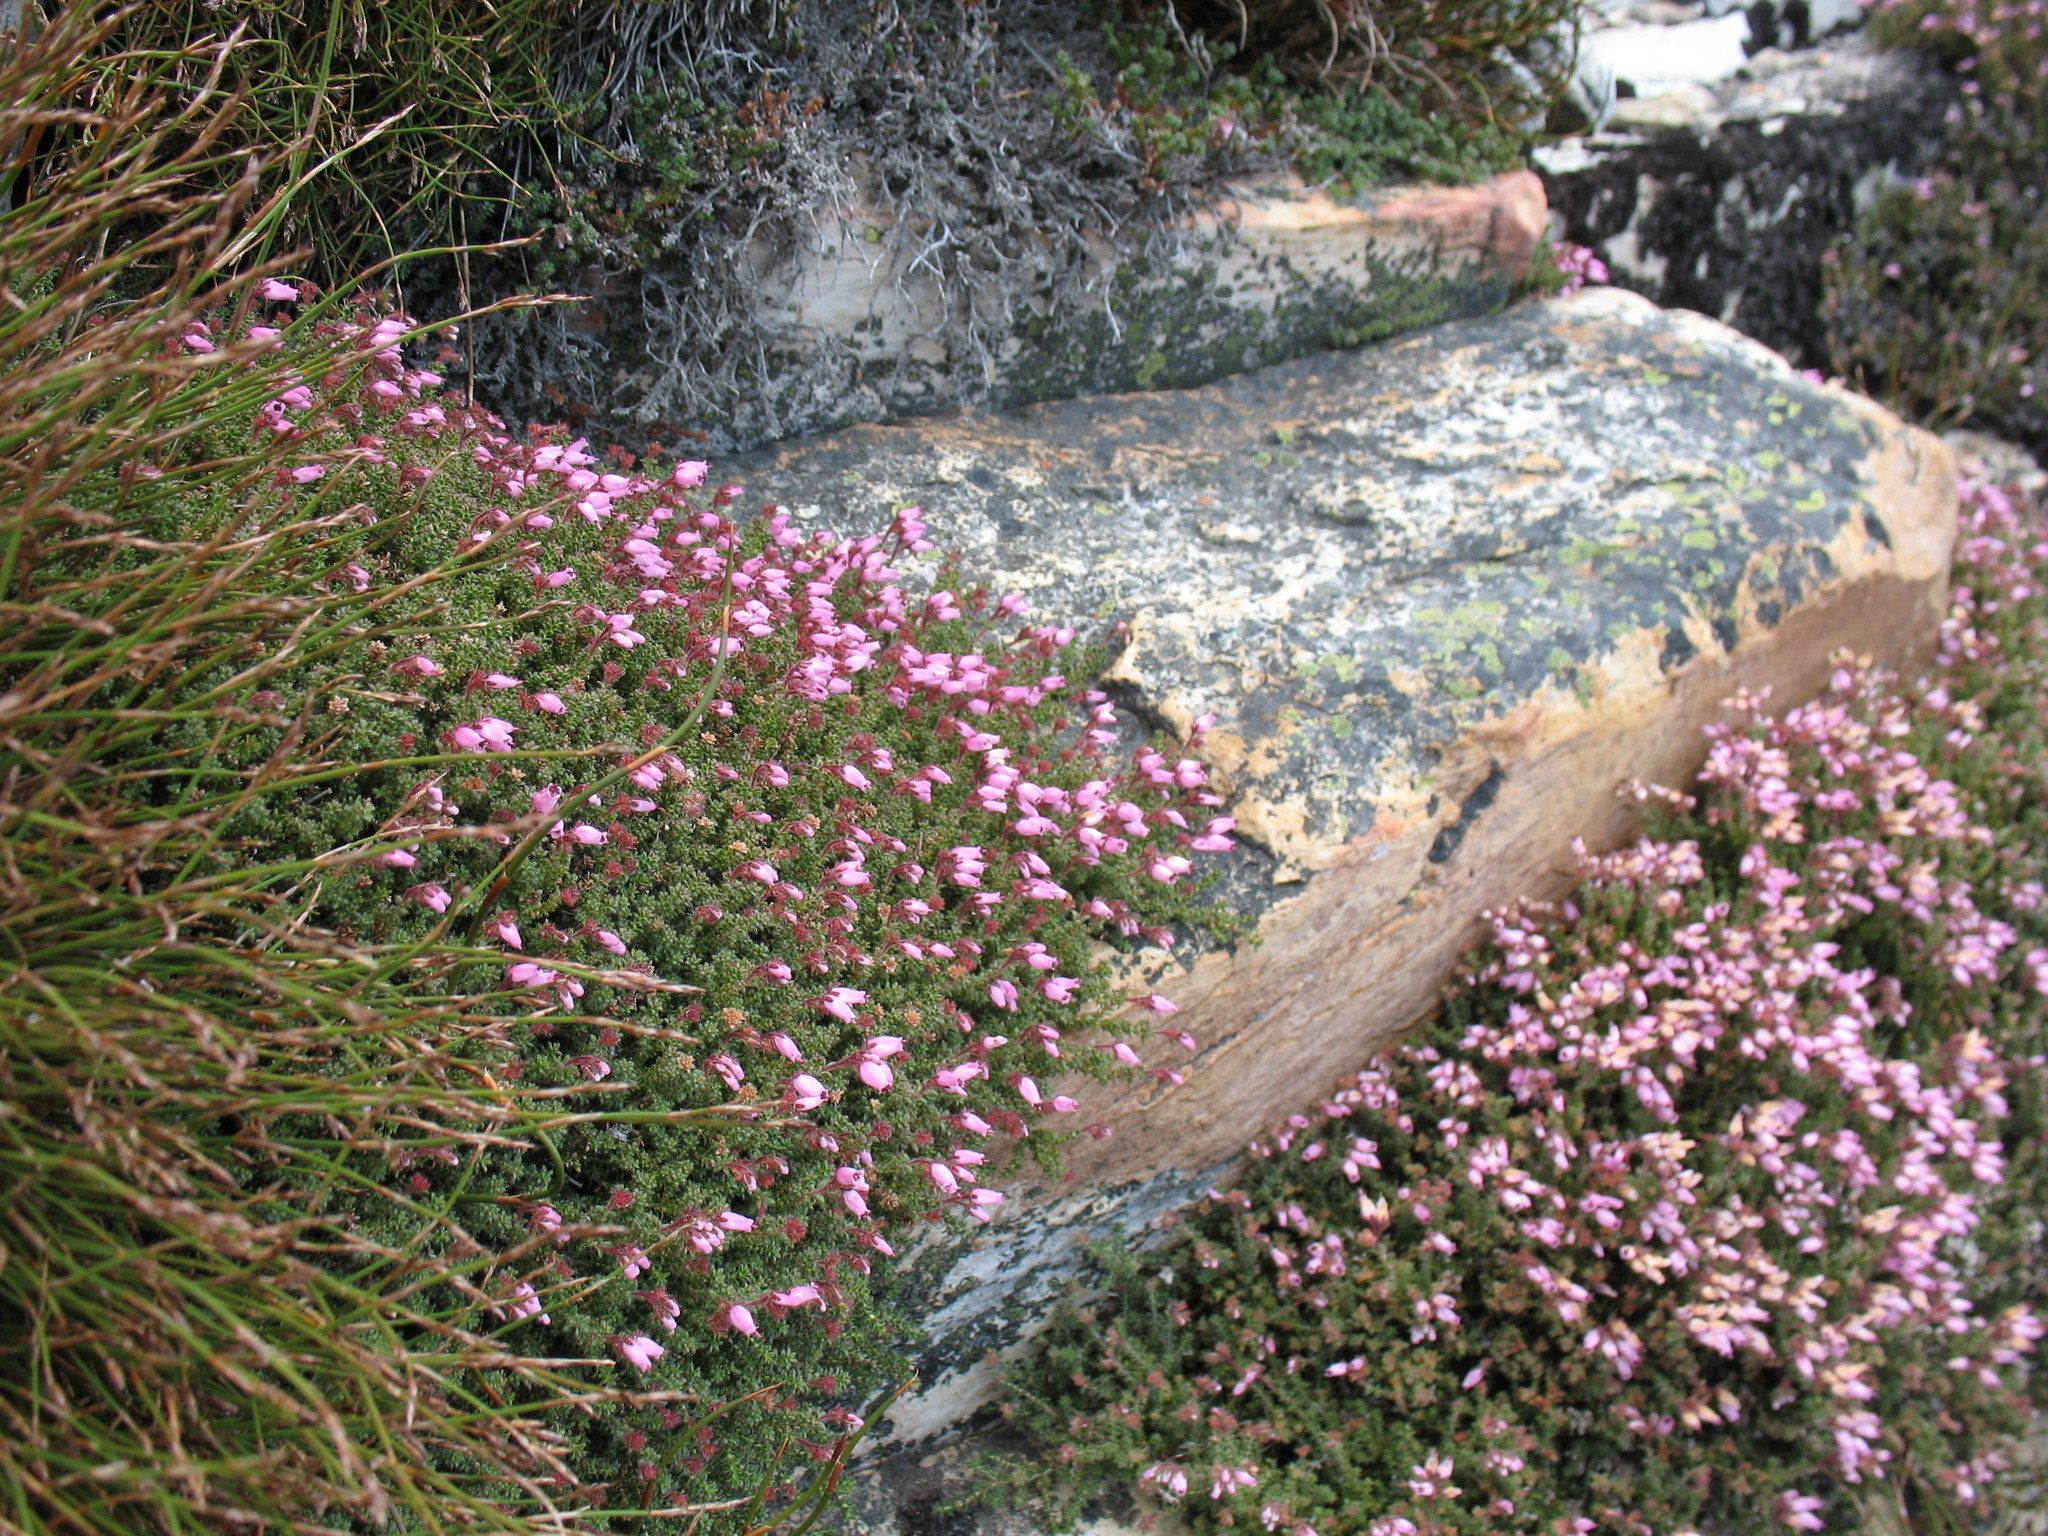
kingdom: Plantae
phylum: Tracheophyta
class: Magnoliopsida
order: Ericales
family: Ericaceae
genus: Erica
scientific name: Erica coacervata
